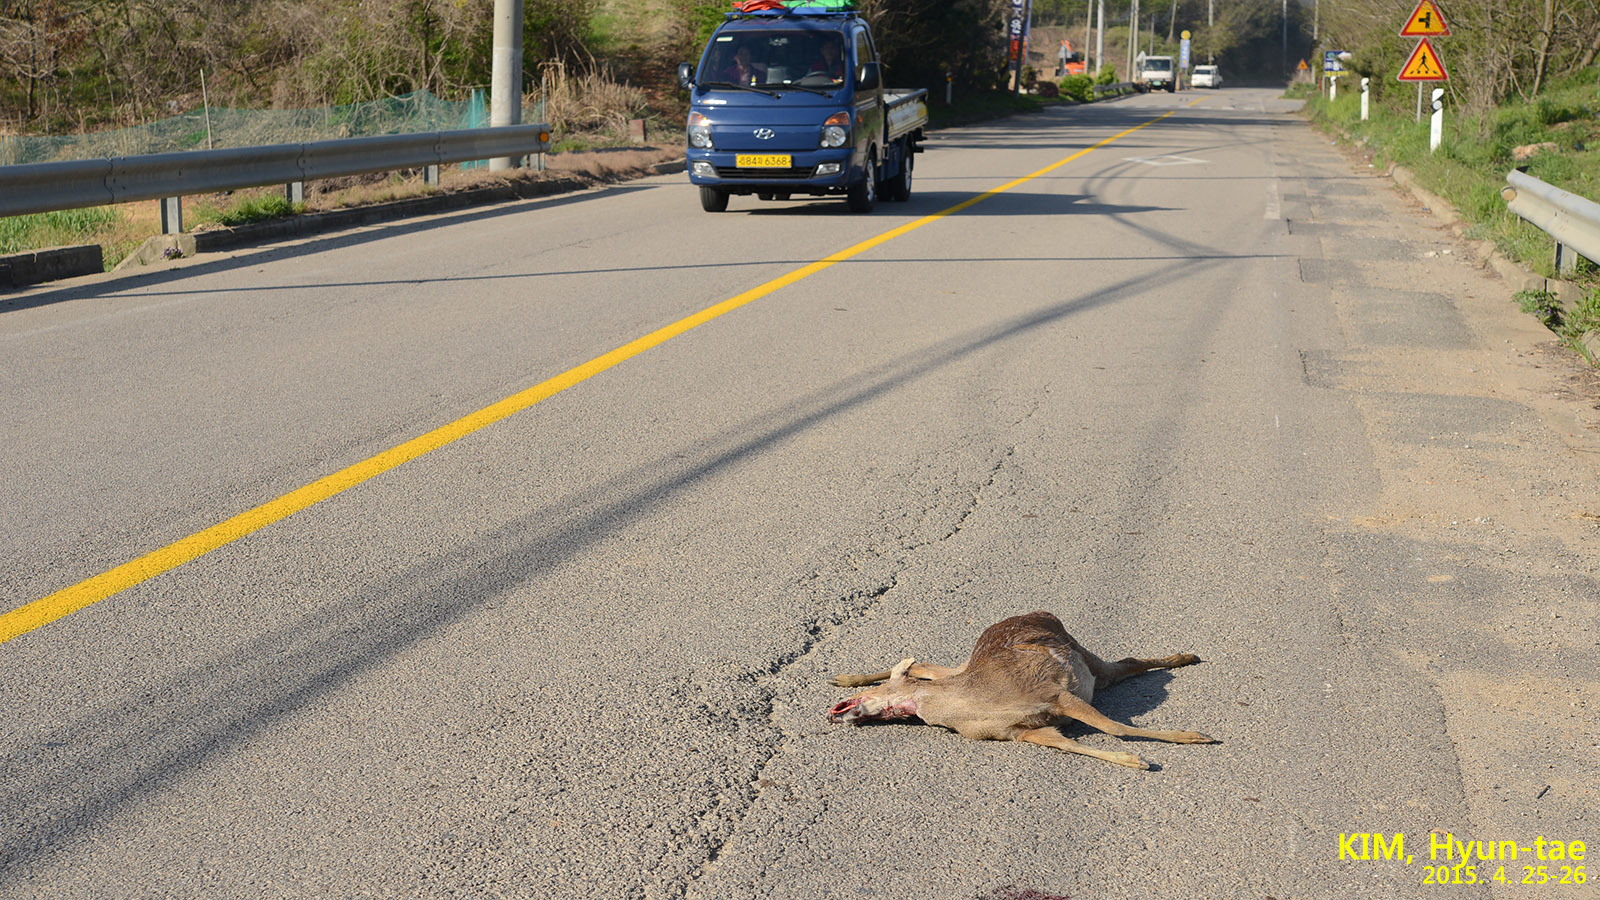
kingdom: Animalia
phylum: Chordata
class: Mammalia
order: Artiodactyla
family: Cervidae
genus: Hydropotes
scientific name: Hydropotes inermis
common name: Chinese water deer
